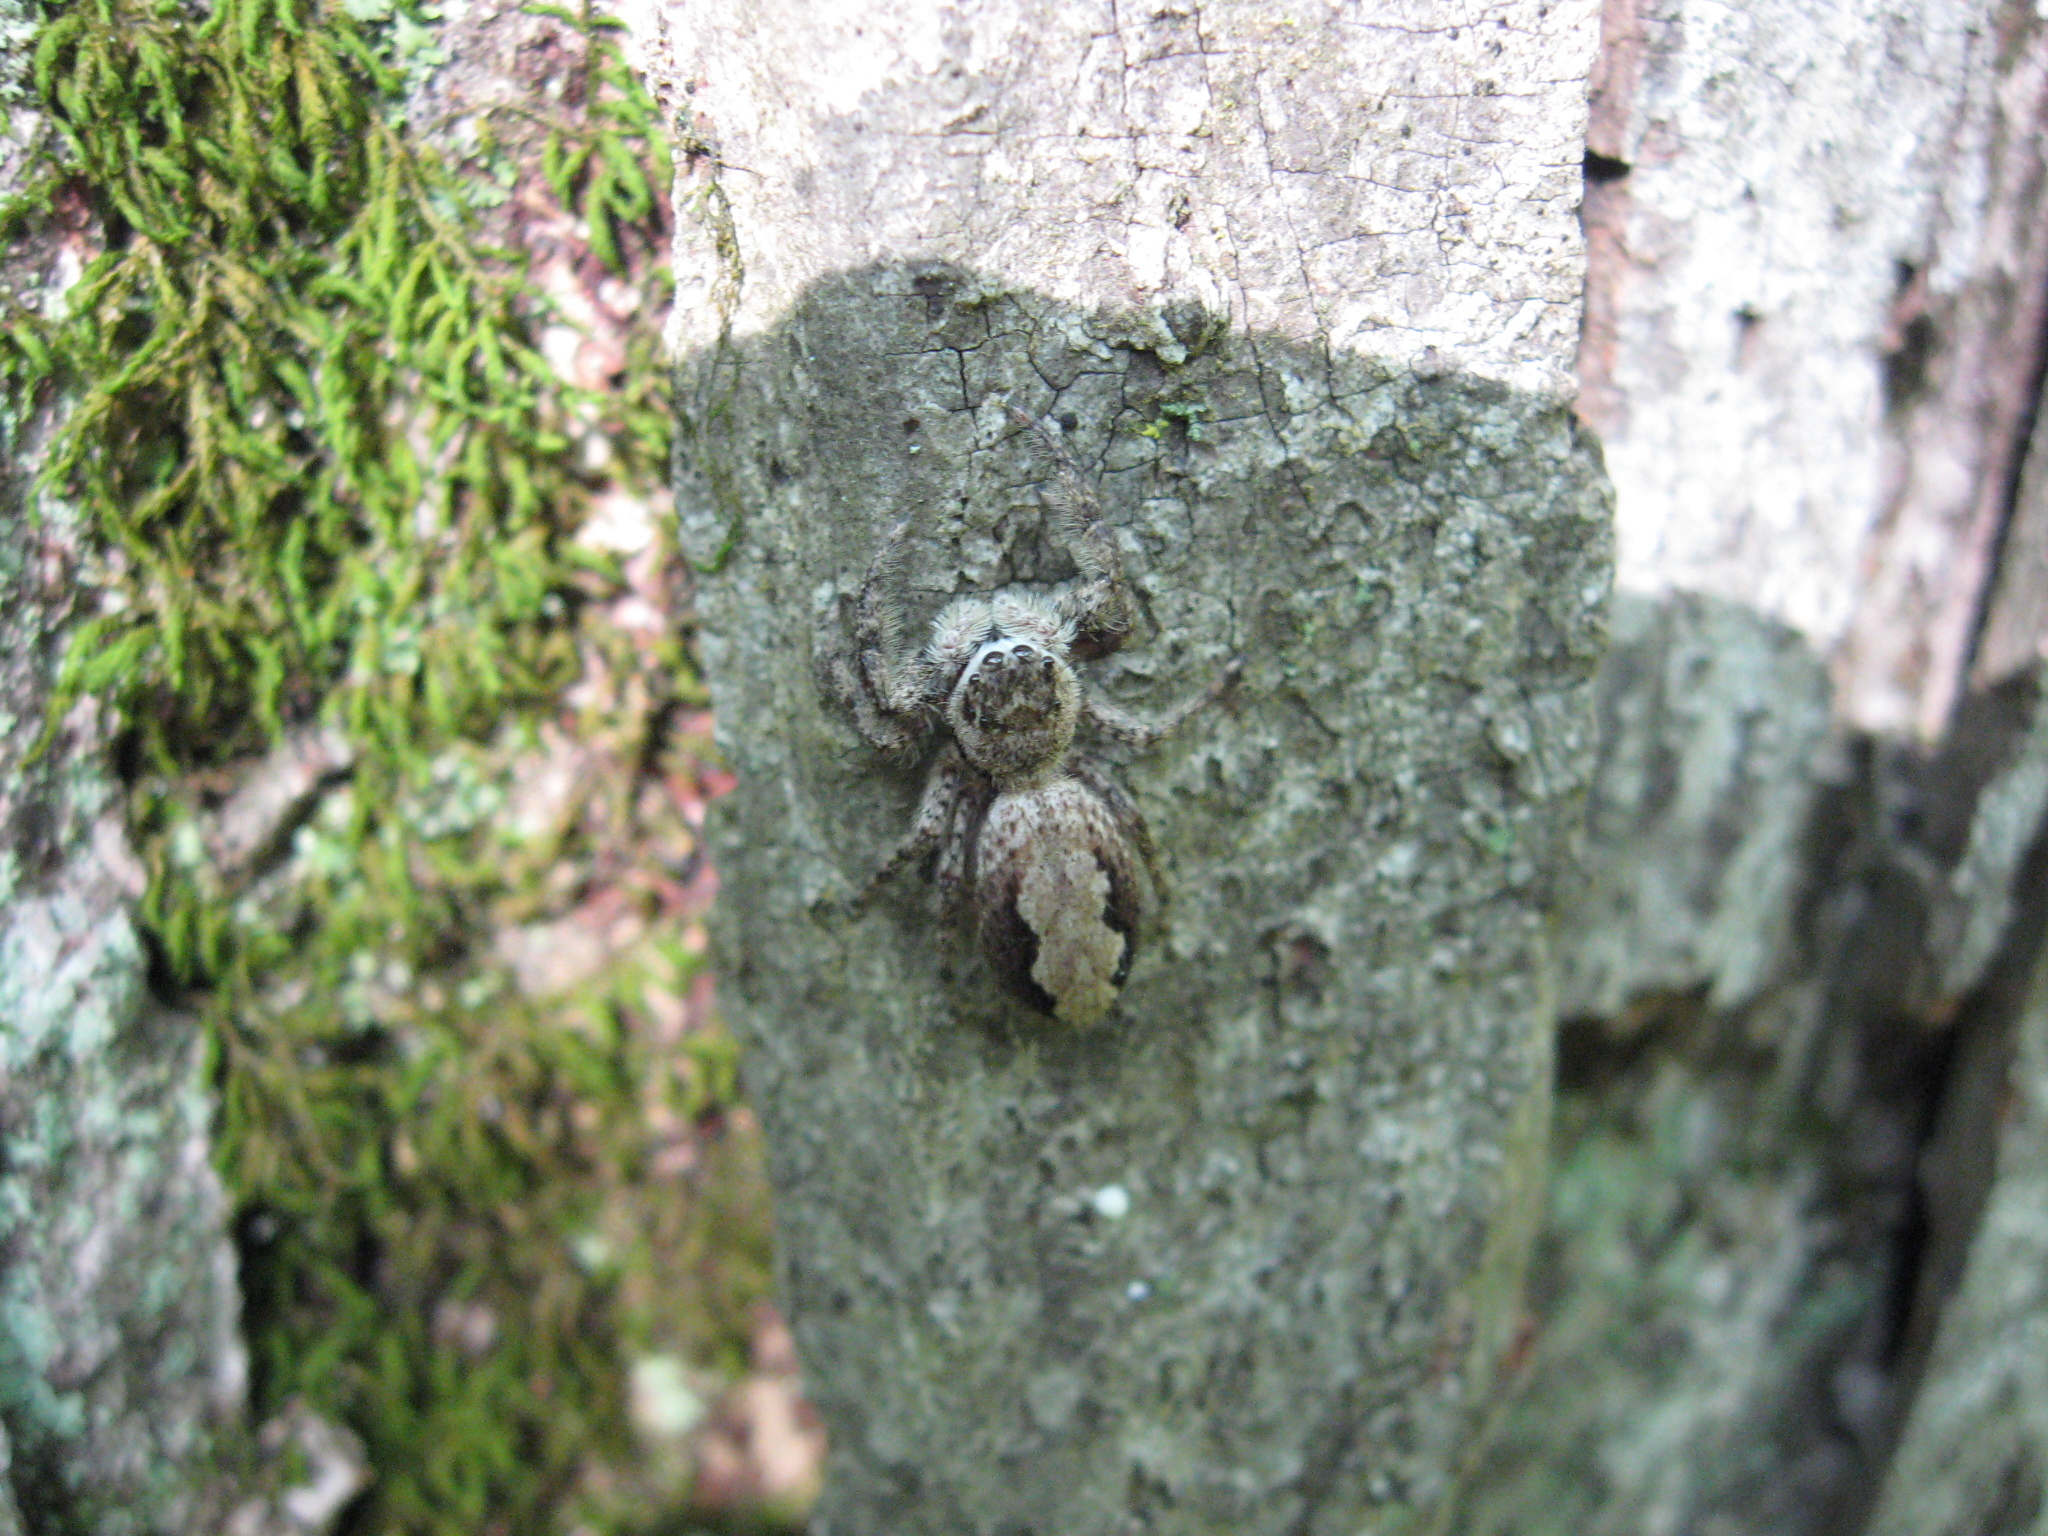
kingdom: Animalia
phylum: Arthropoda
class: Arachnida
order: Araneae
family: Salticidae
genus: Platycryptus
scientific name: Platycryptus undatus
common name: Tan jumping spider
